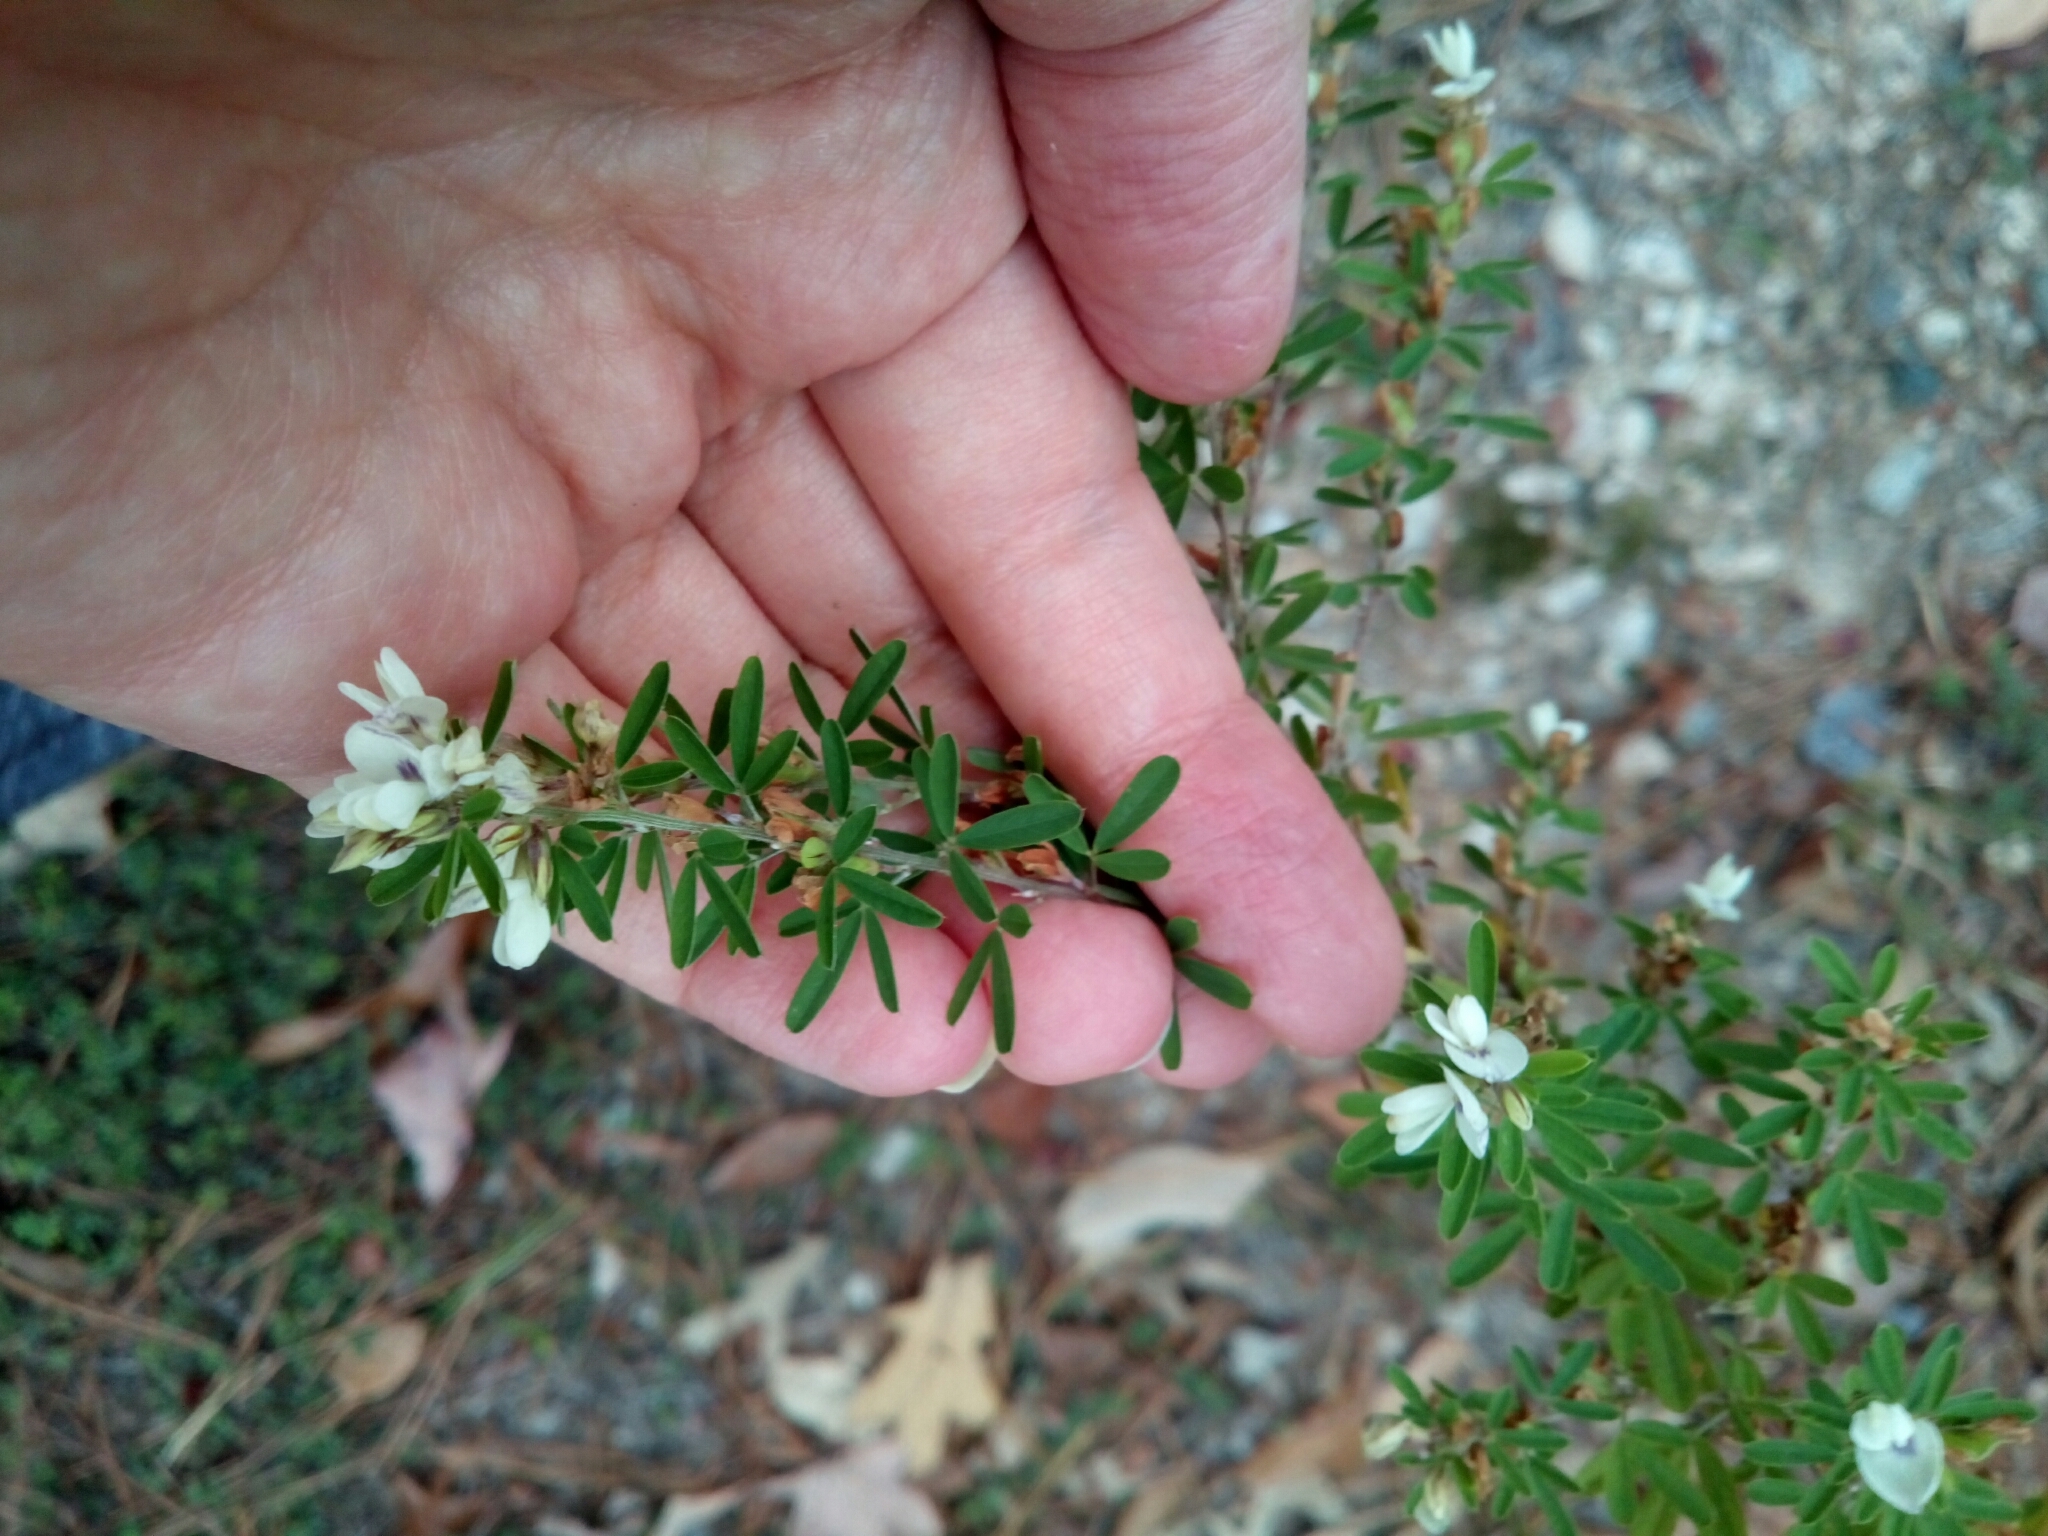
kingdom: Plantae
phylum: Tracheophyta
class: Magnoliopsida
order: Fabales
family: Fabaceae
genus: Lespedeza
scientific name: Lespedeza cuneata
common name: Chinese bush-clover
